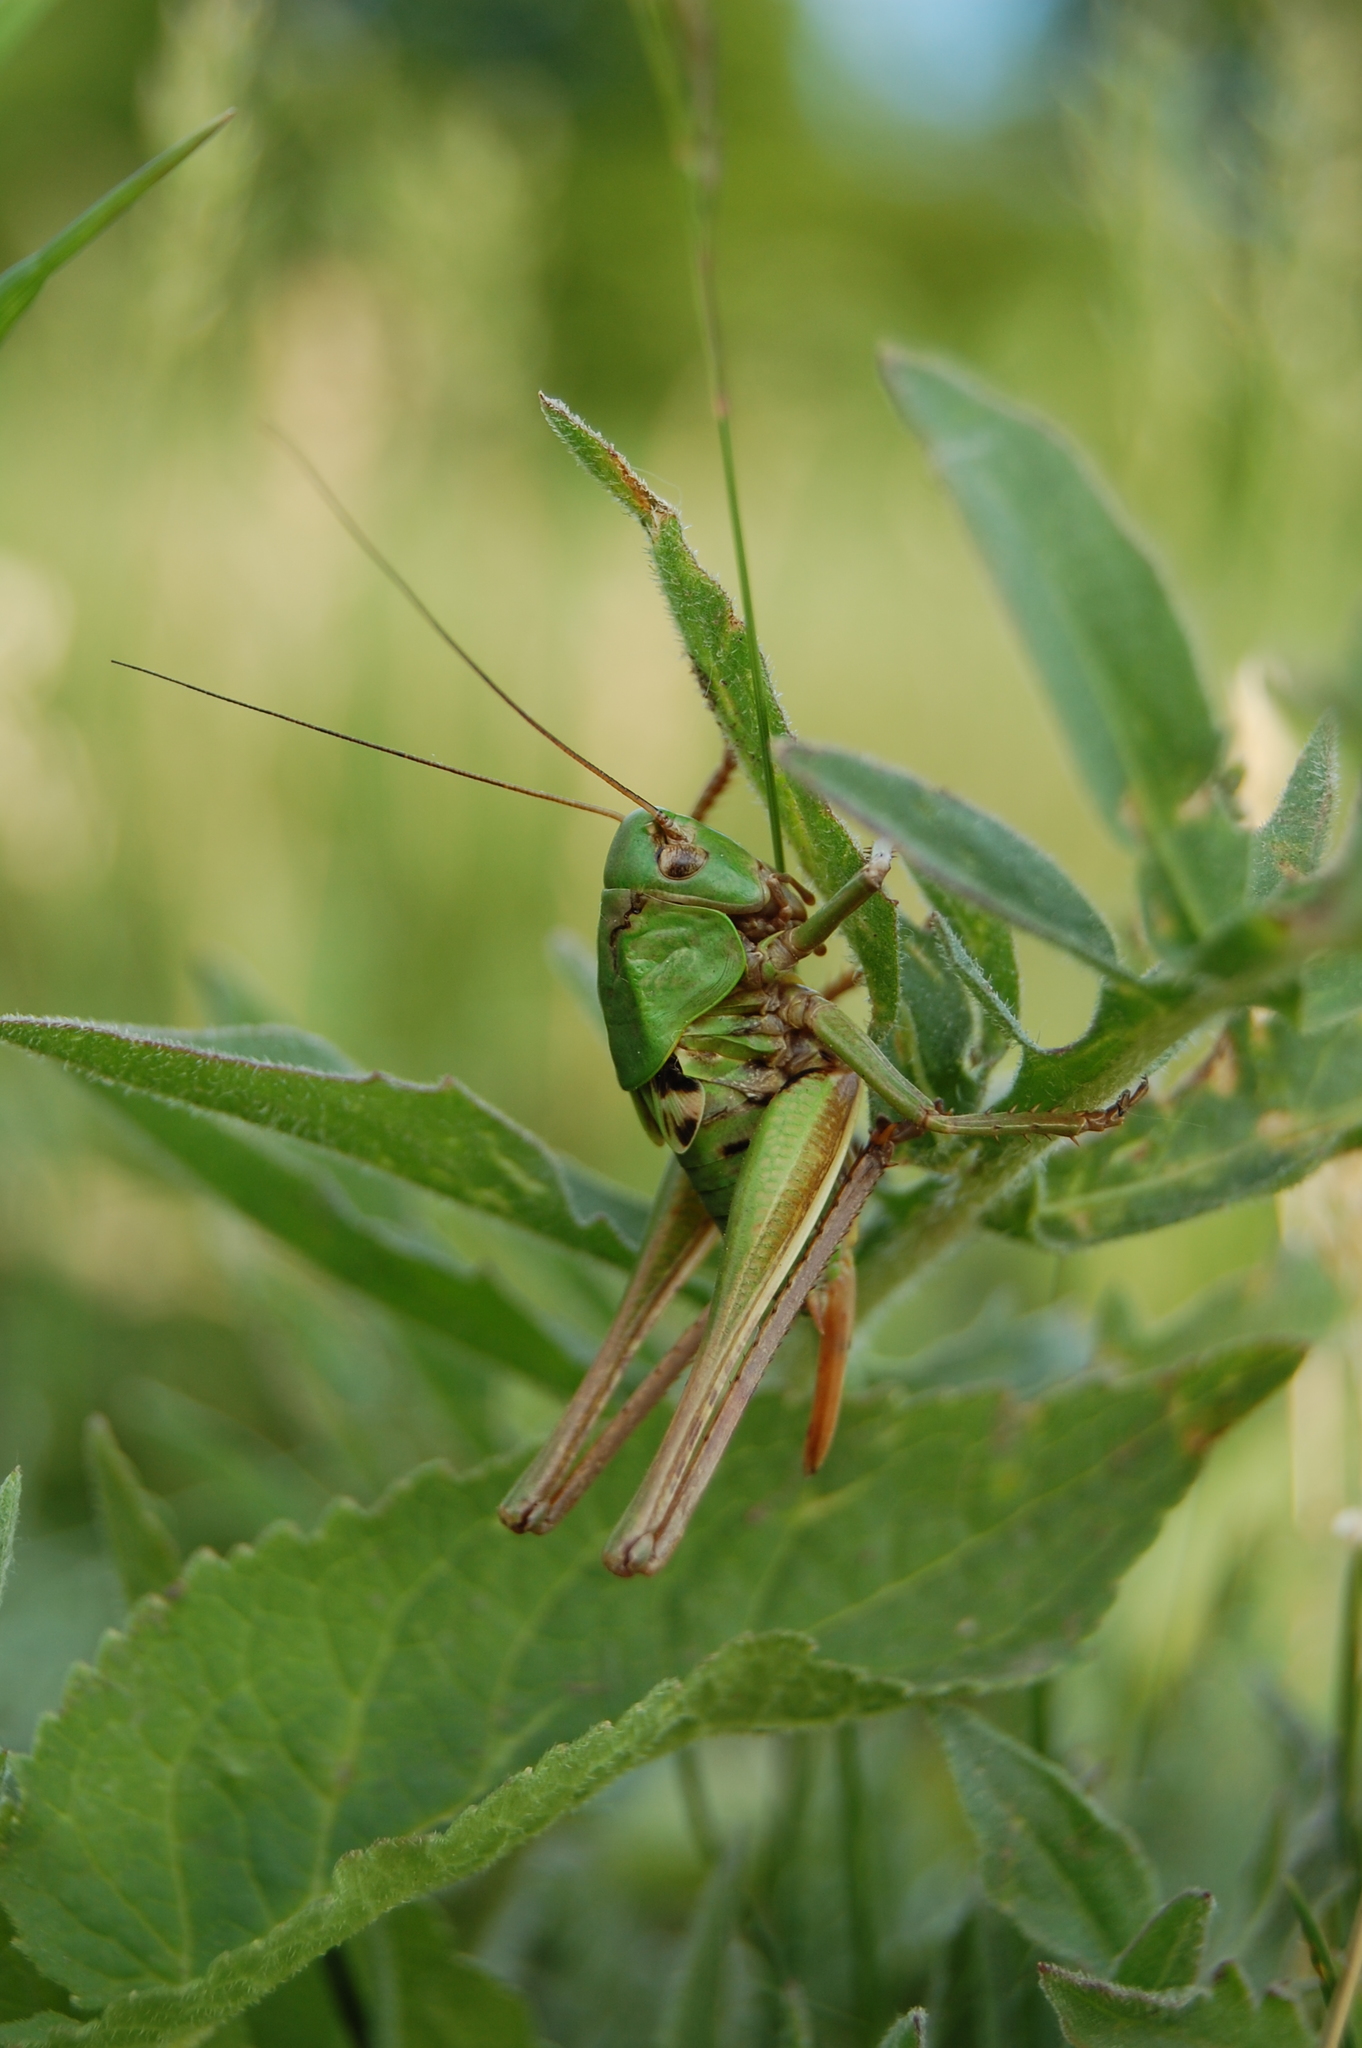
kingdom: Animalia
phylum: Arthropoda
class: Insecta
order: Orthoptera
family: Tettigoniidae
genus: Decticus
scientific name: Decticus verrucivorus
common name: Wart-biter
